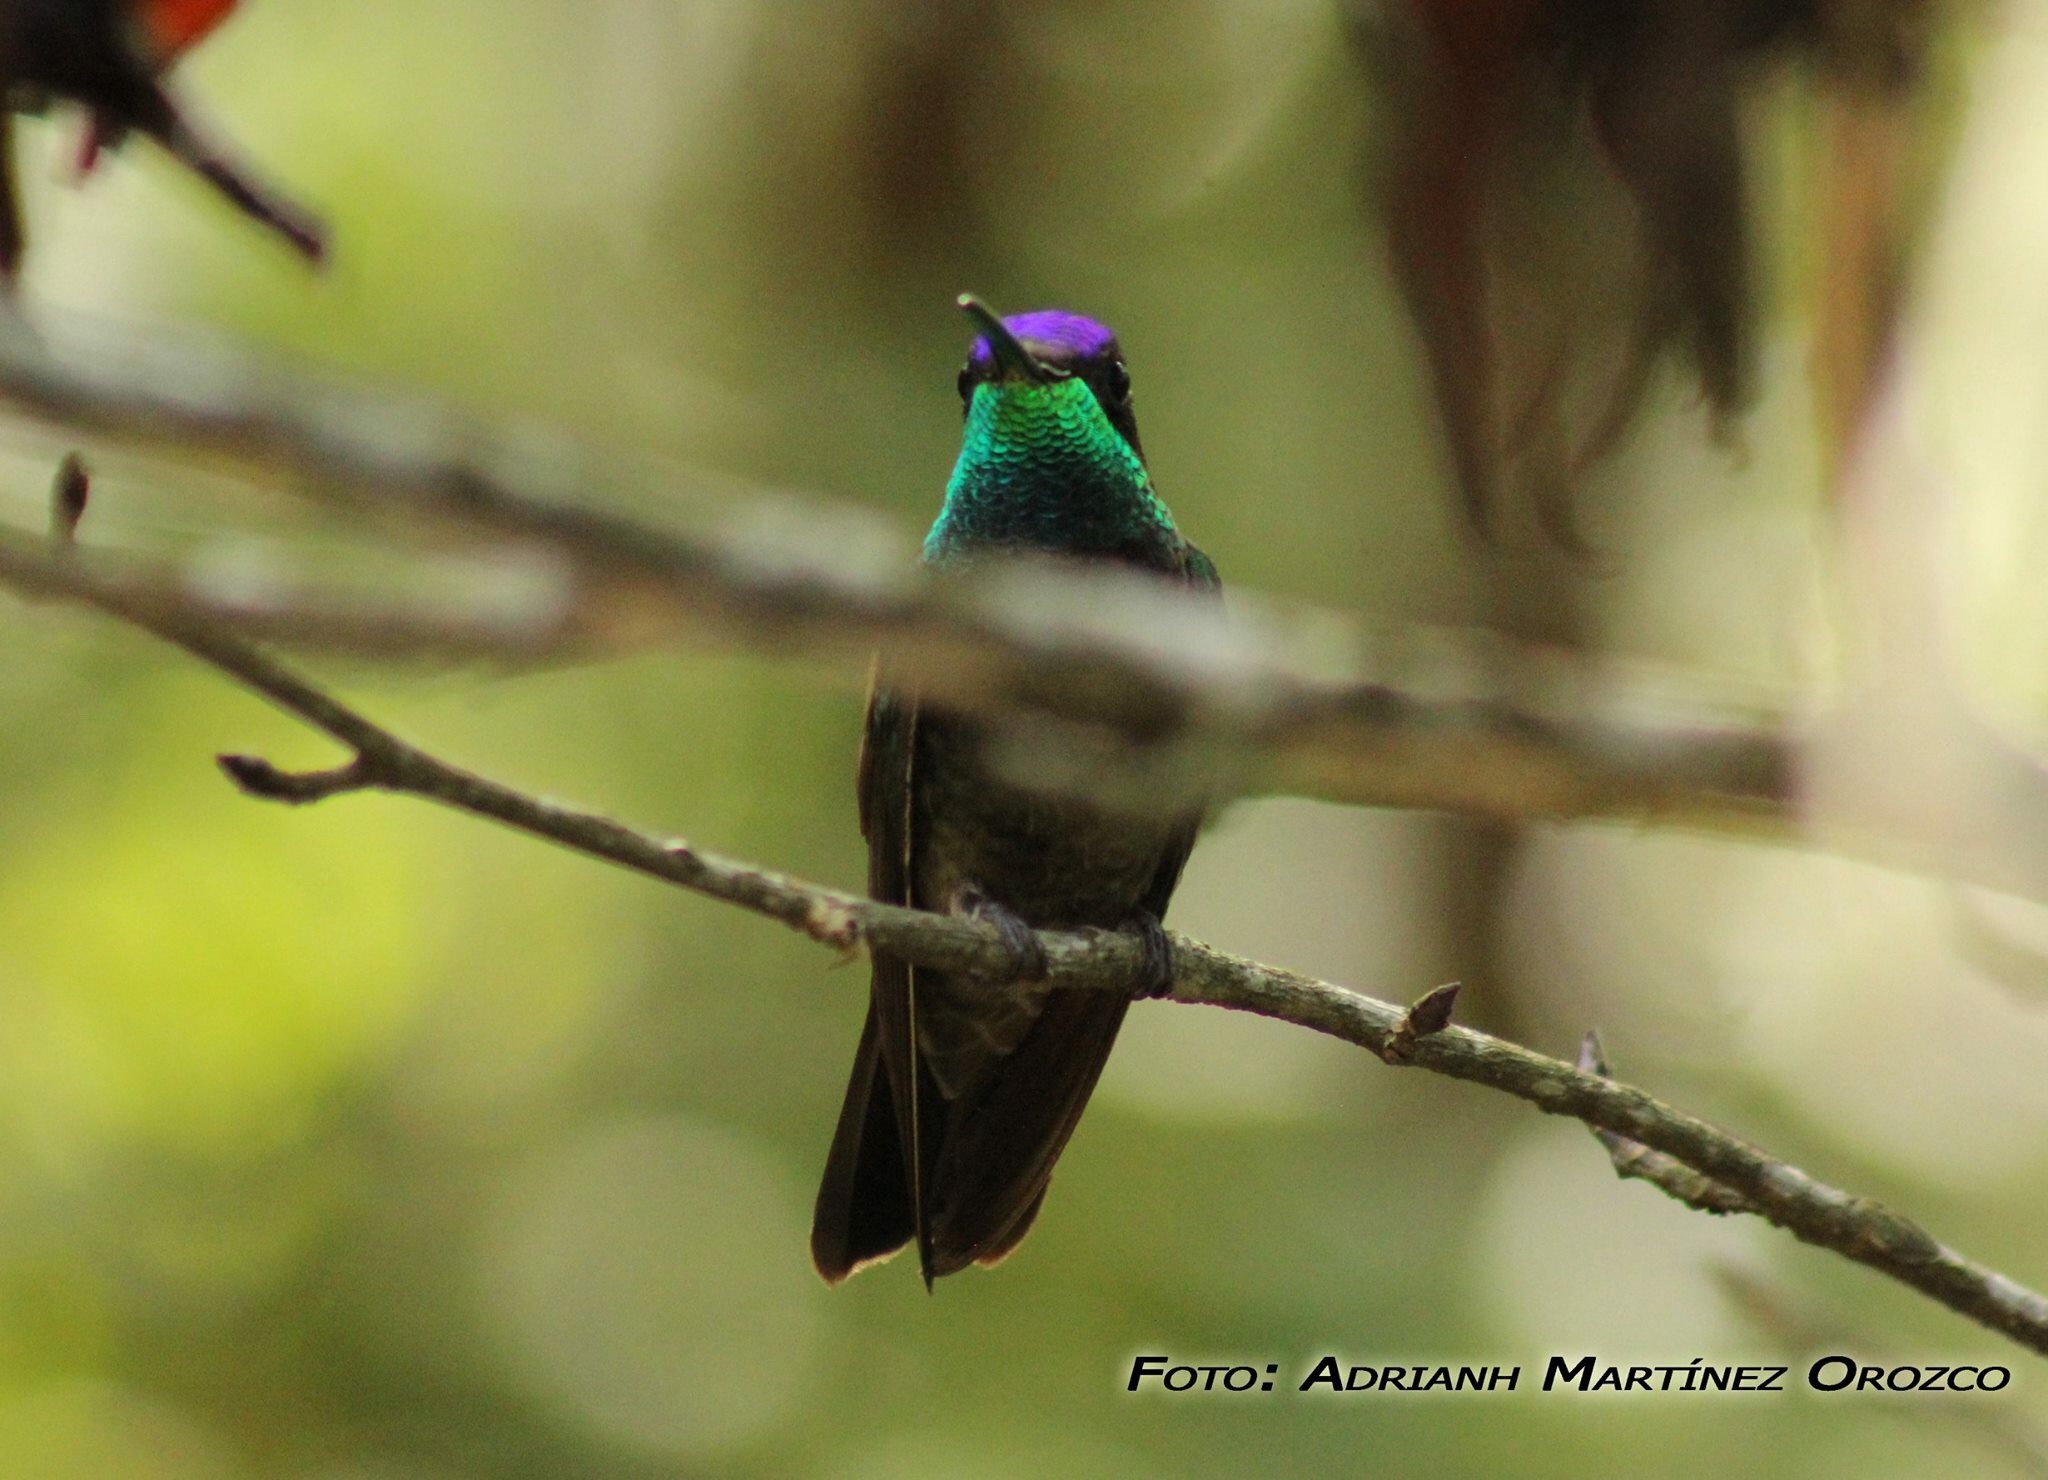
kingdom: Animalia
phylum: Chordata
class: Aves
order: Apodiformes
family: Trochilidae
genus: Eugenes
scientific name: Eugenes fulgens
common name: Magnificent hummingbird
